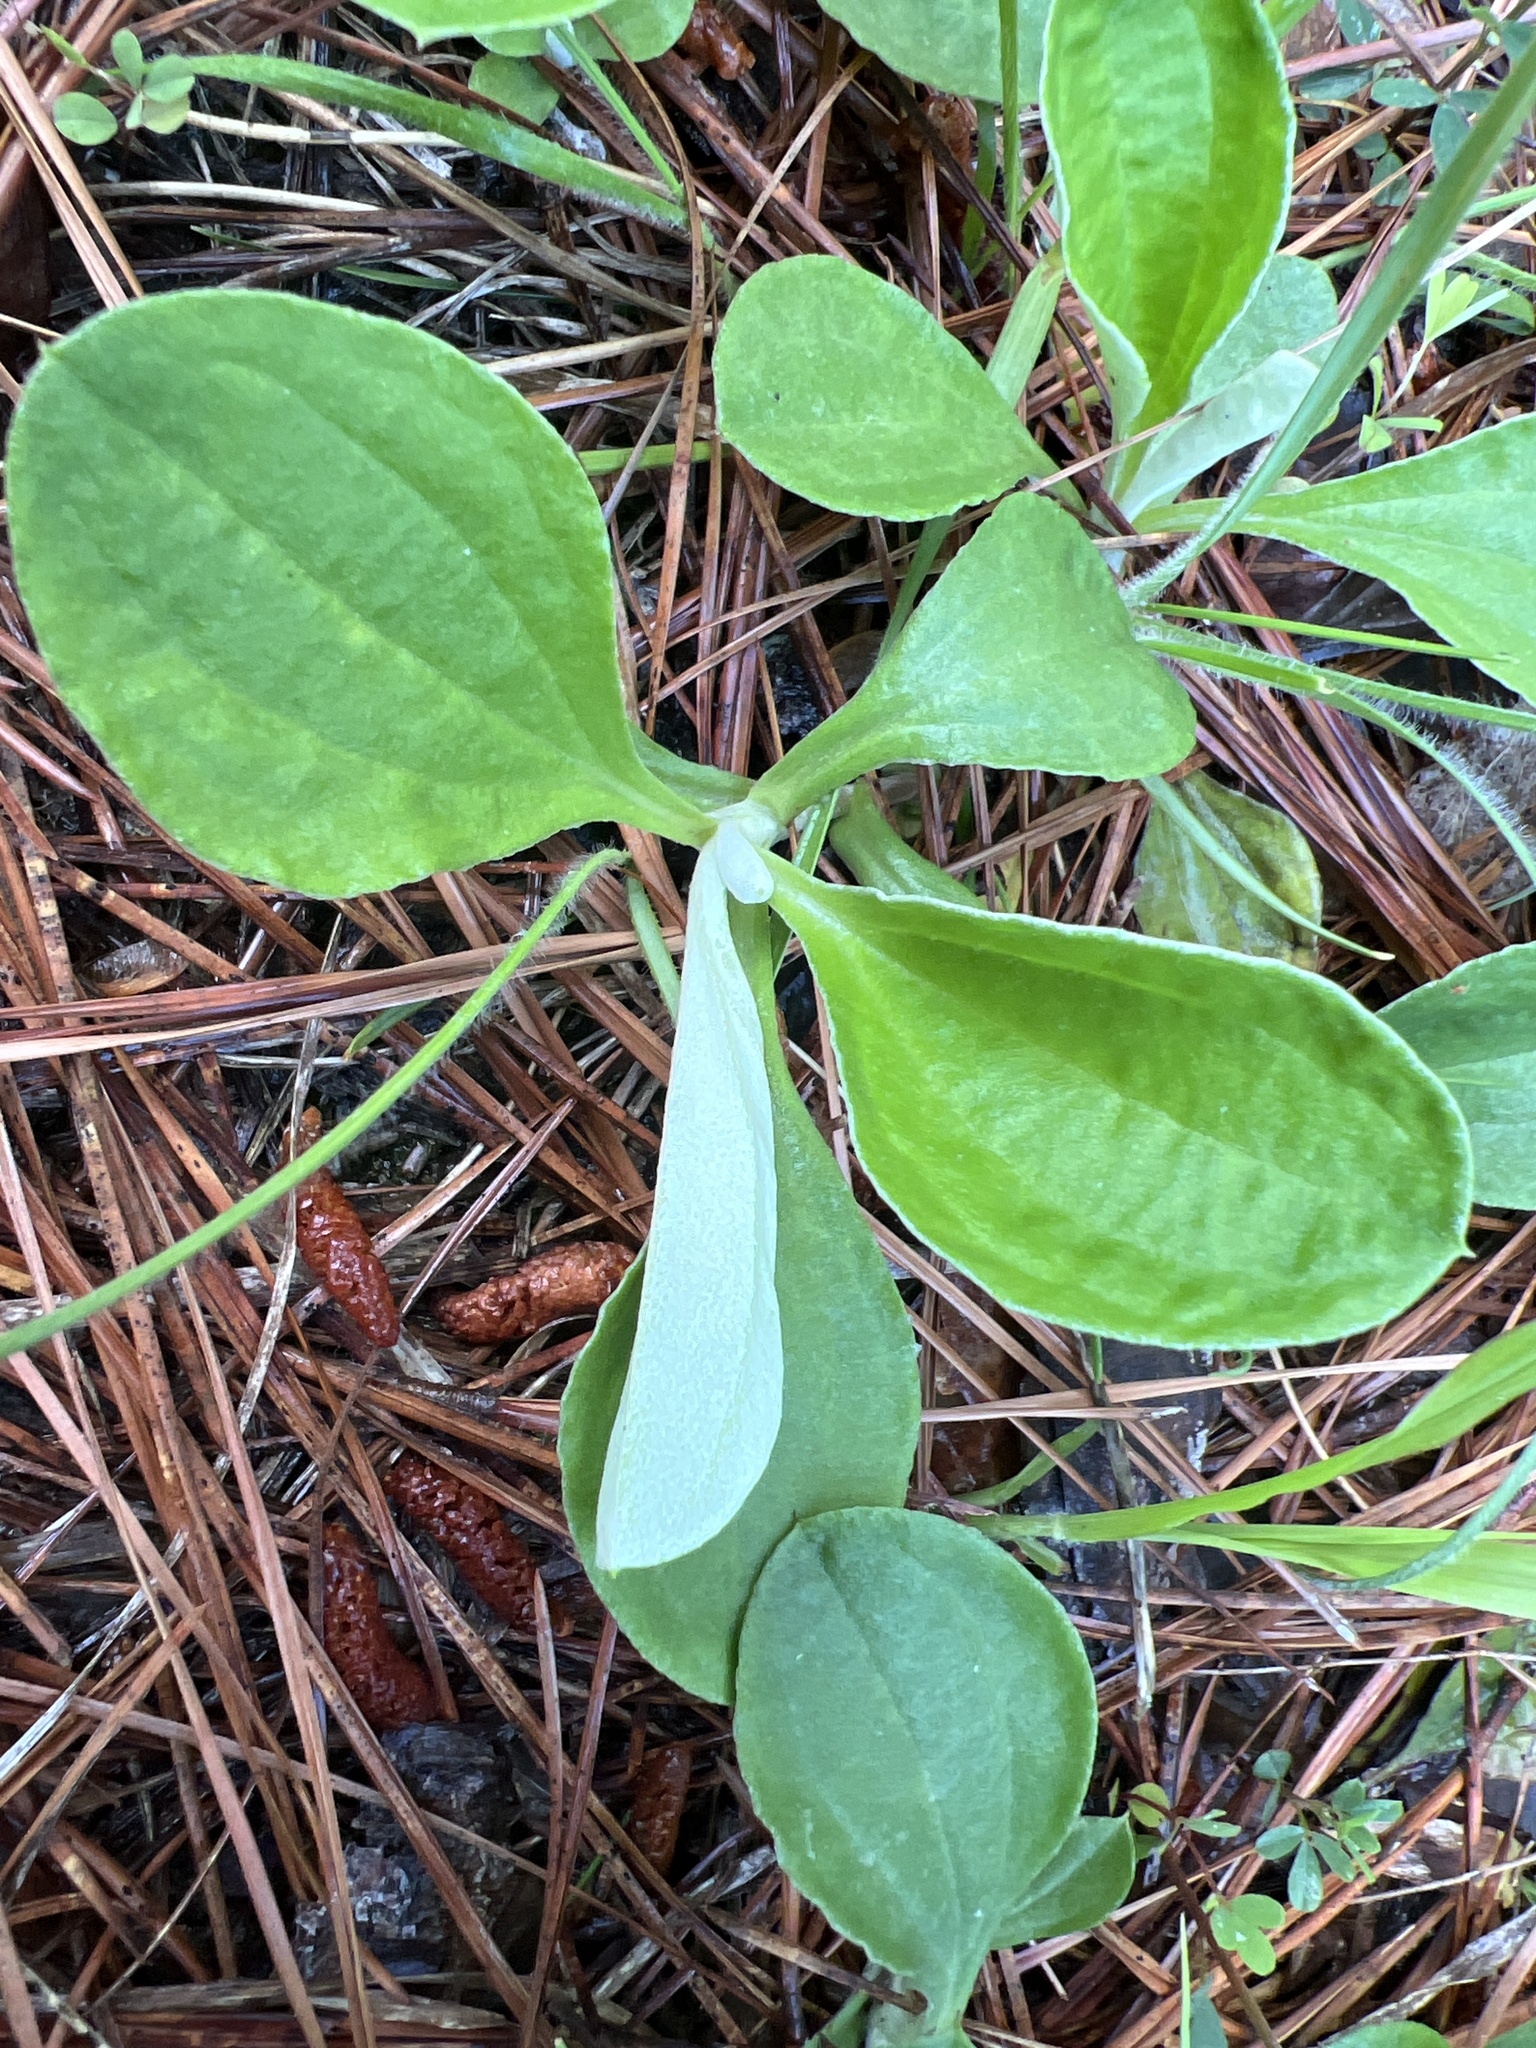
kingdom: Plantae
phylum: Tracheophyta
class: Magnoliopsida
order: Asterales
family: Asteraceae
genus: Antennaria
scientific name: Antennaria parlinii
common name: Parlin's pussytoes
